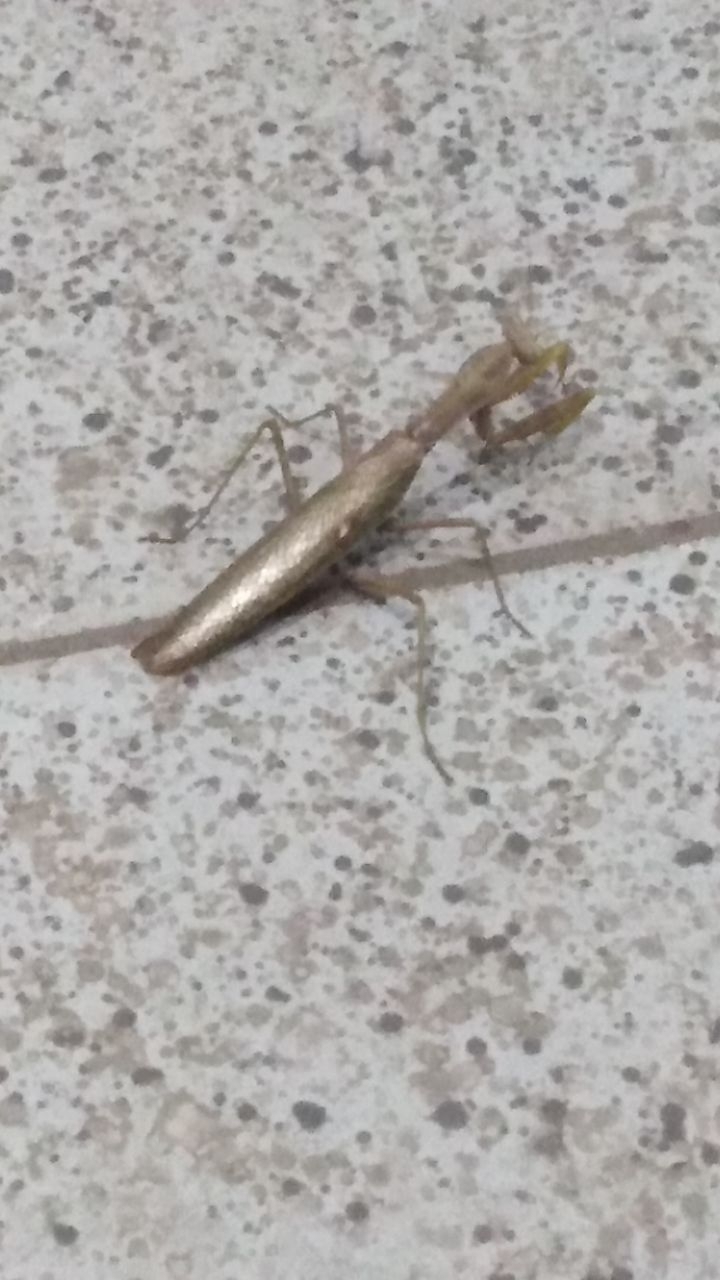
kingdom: Animalia
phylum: Arthropoda
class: Insecta
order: Mantodea
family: Mantidae
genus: Hierodula
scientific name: Hierodula transcaucasica
